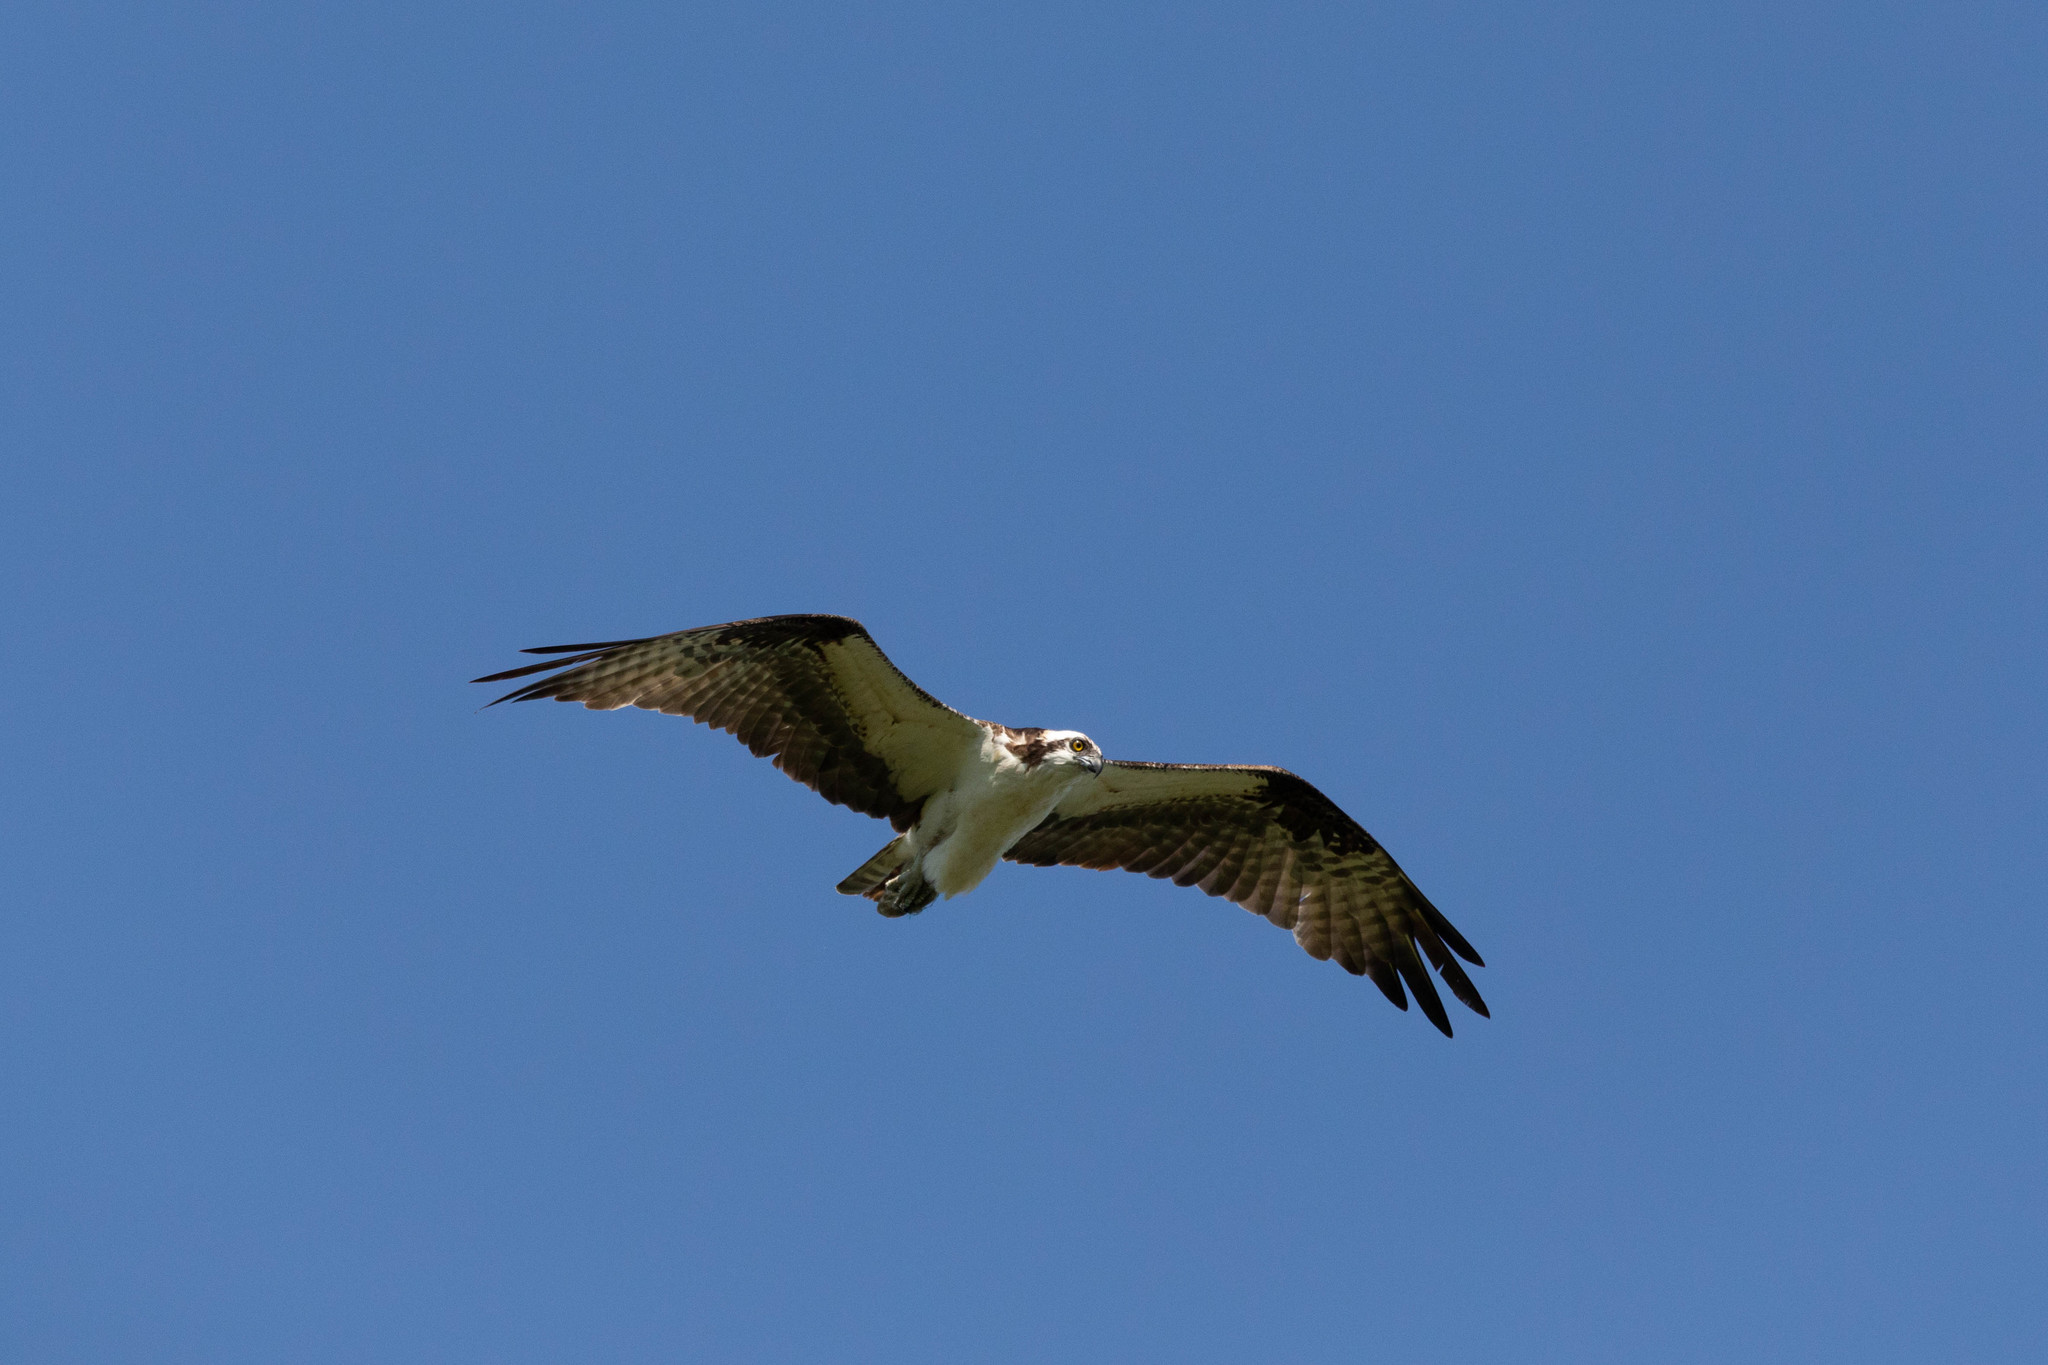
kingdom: Animalia
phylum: Chordata
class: Aves
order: Accipitriformes
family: Pandionidae
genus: Pandion
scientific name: Pandion haliaetus
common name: Osprey
